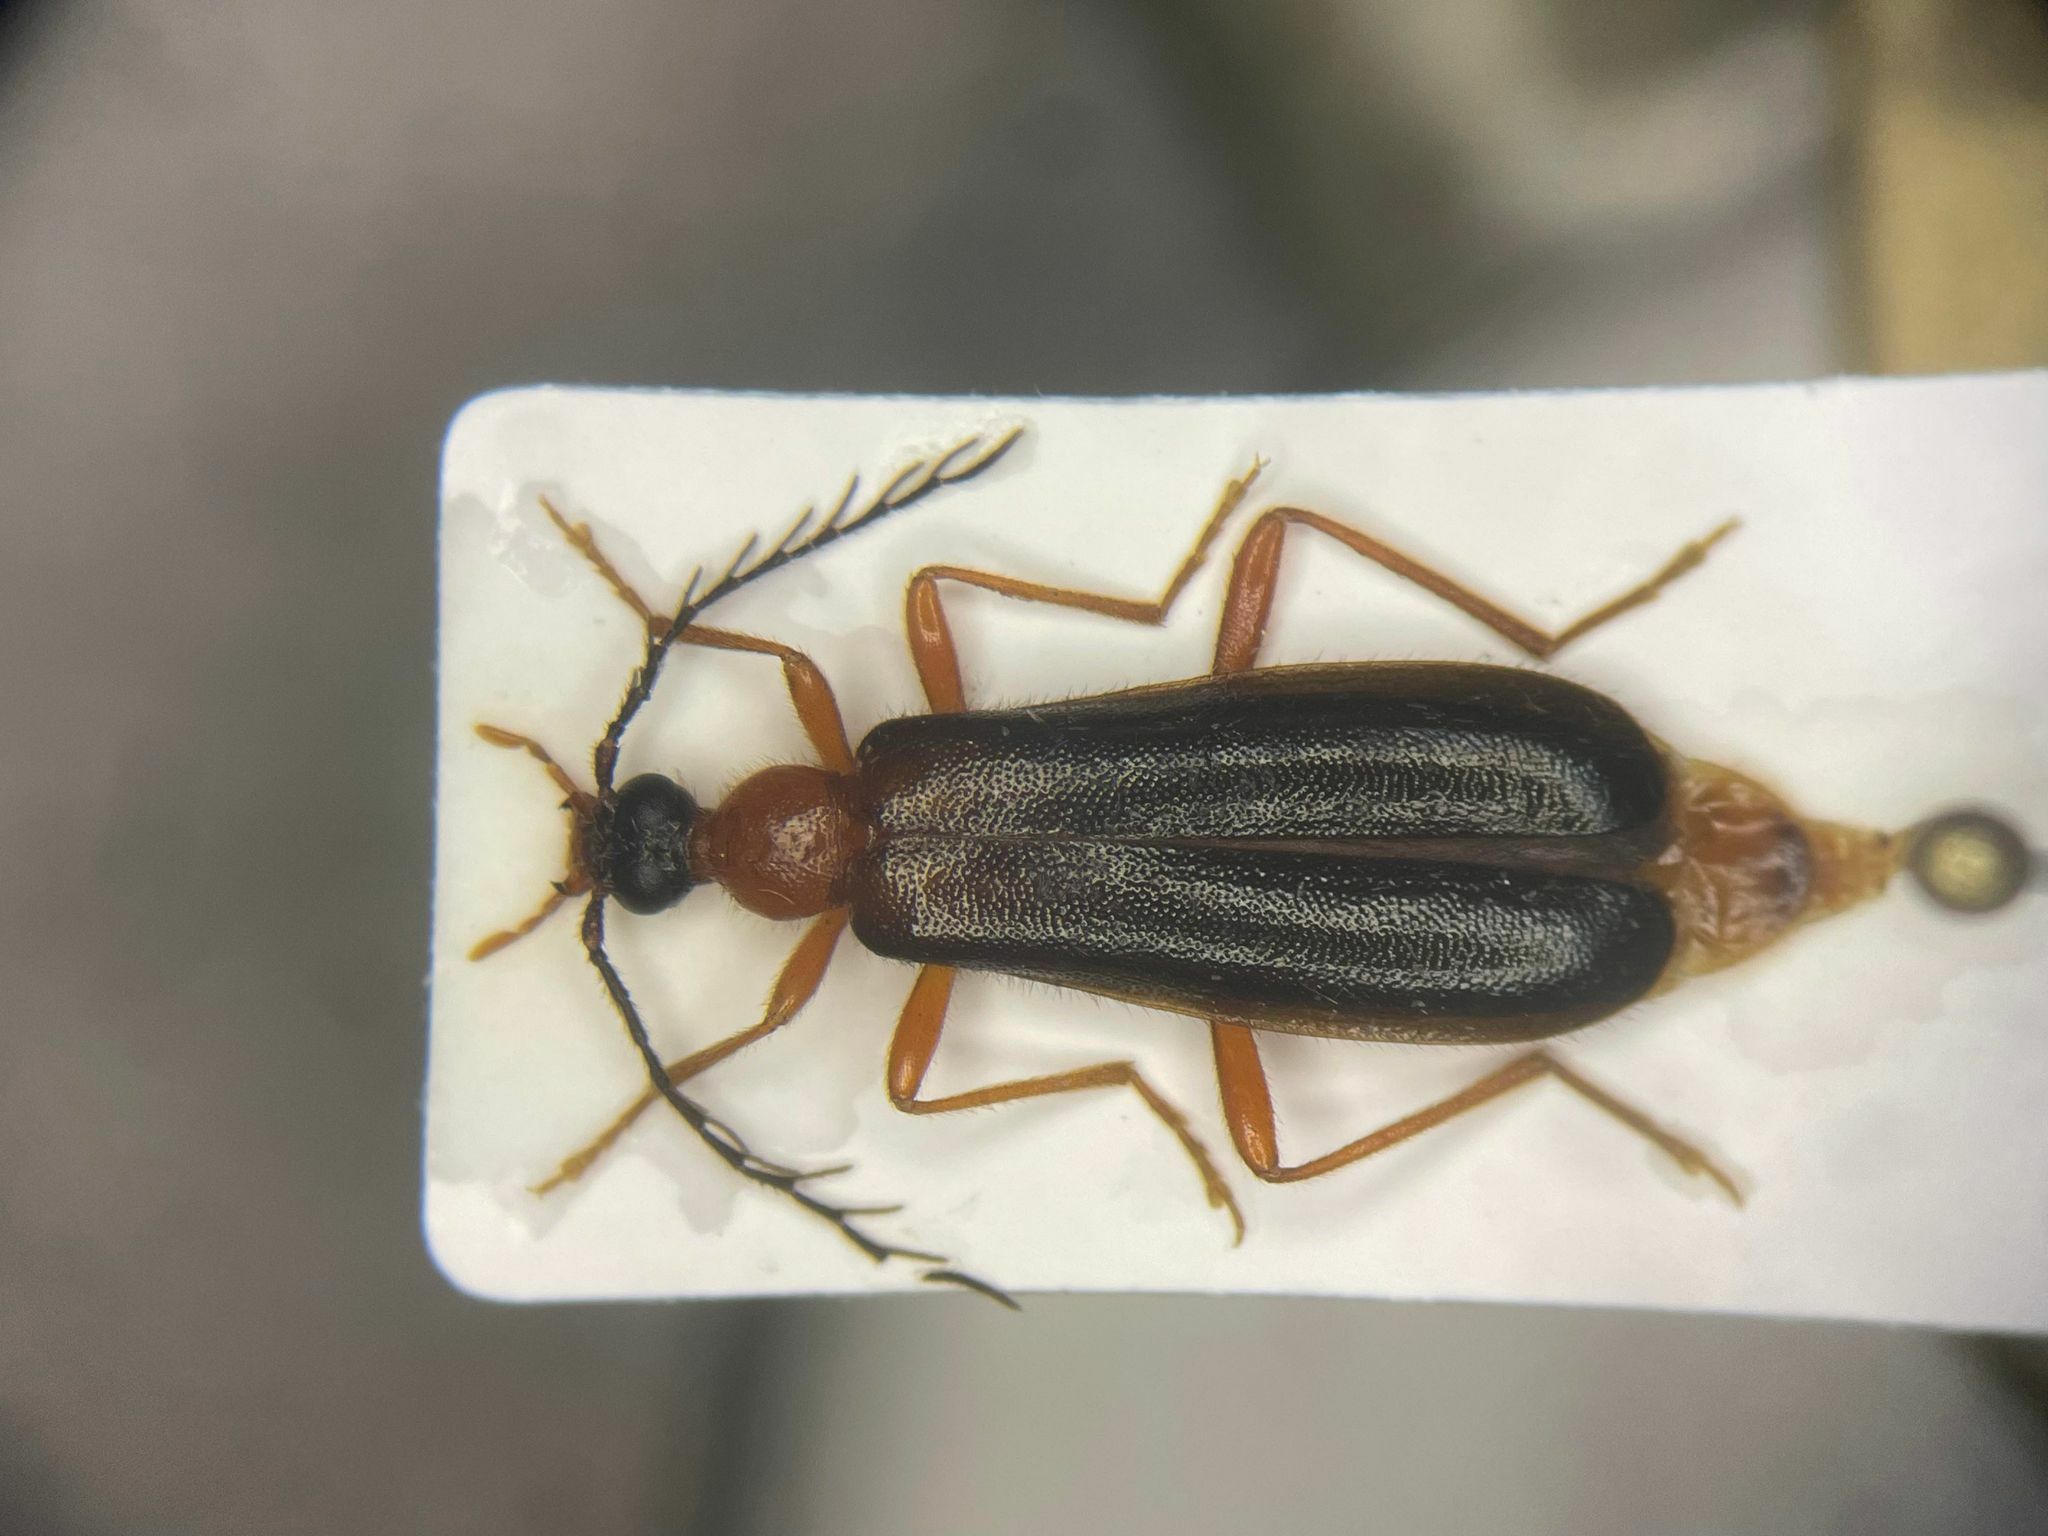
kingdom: Animalia
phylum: Arthropoda
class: Insecta
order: Coleoptera
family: Pyrochroidae
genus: Dendroides
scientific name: Dendroides canadensis
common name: Canada fire-colored beetle
